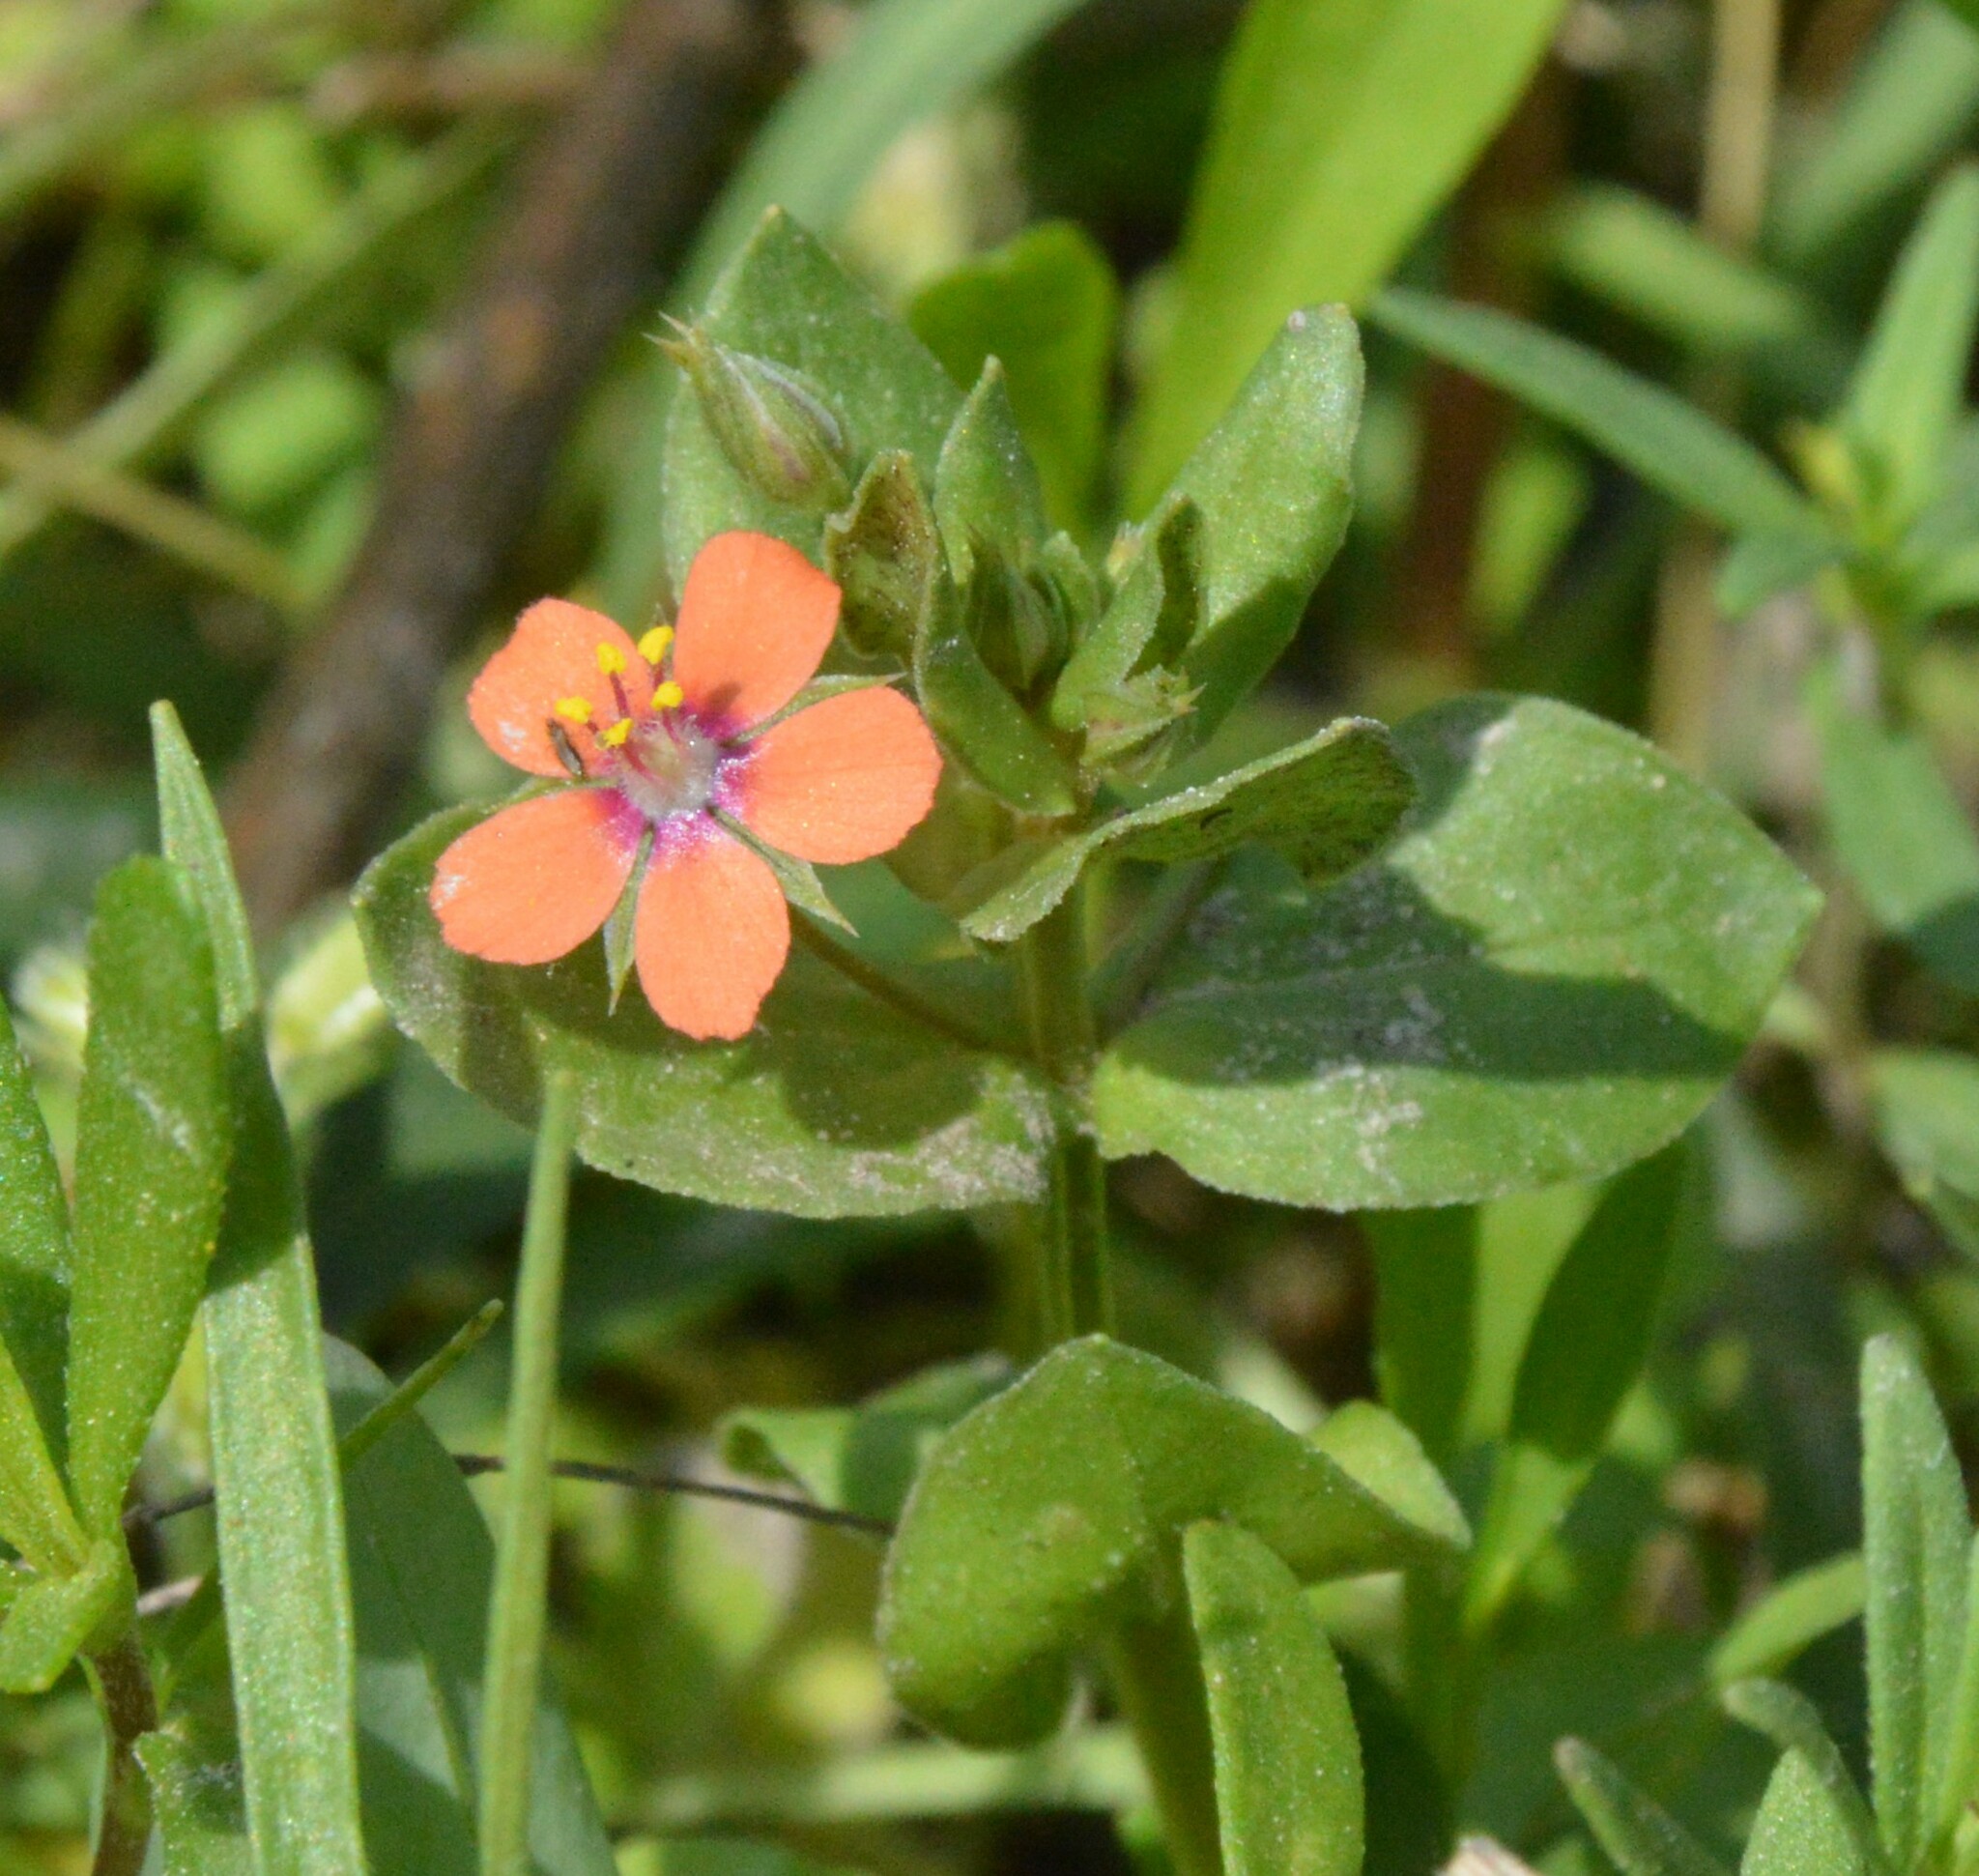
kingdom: Plantae
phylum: Tracheophyta
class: Magnoliopsida
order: Ericales
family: Primulaceae
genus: Lysimachia
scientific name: Lysimachia arvensis
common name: Scarlet pimpernel
